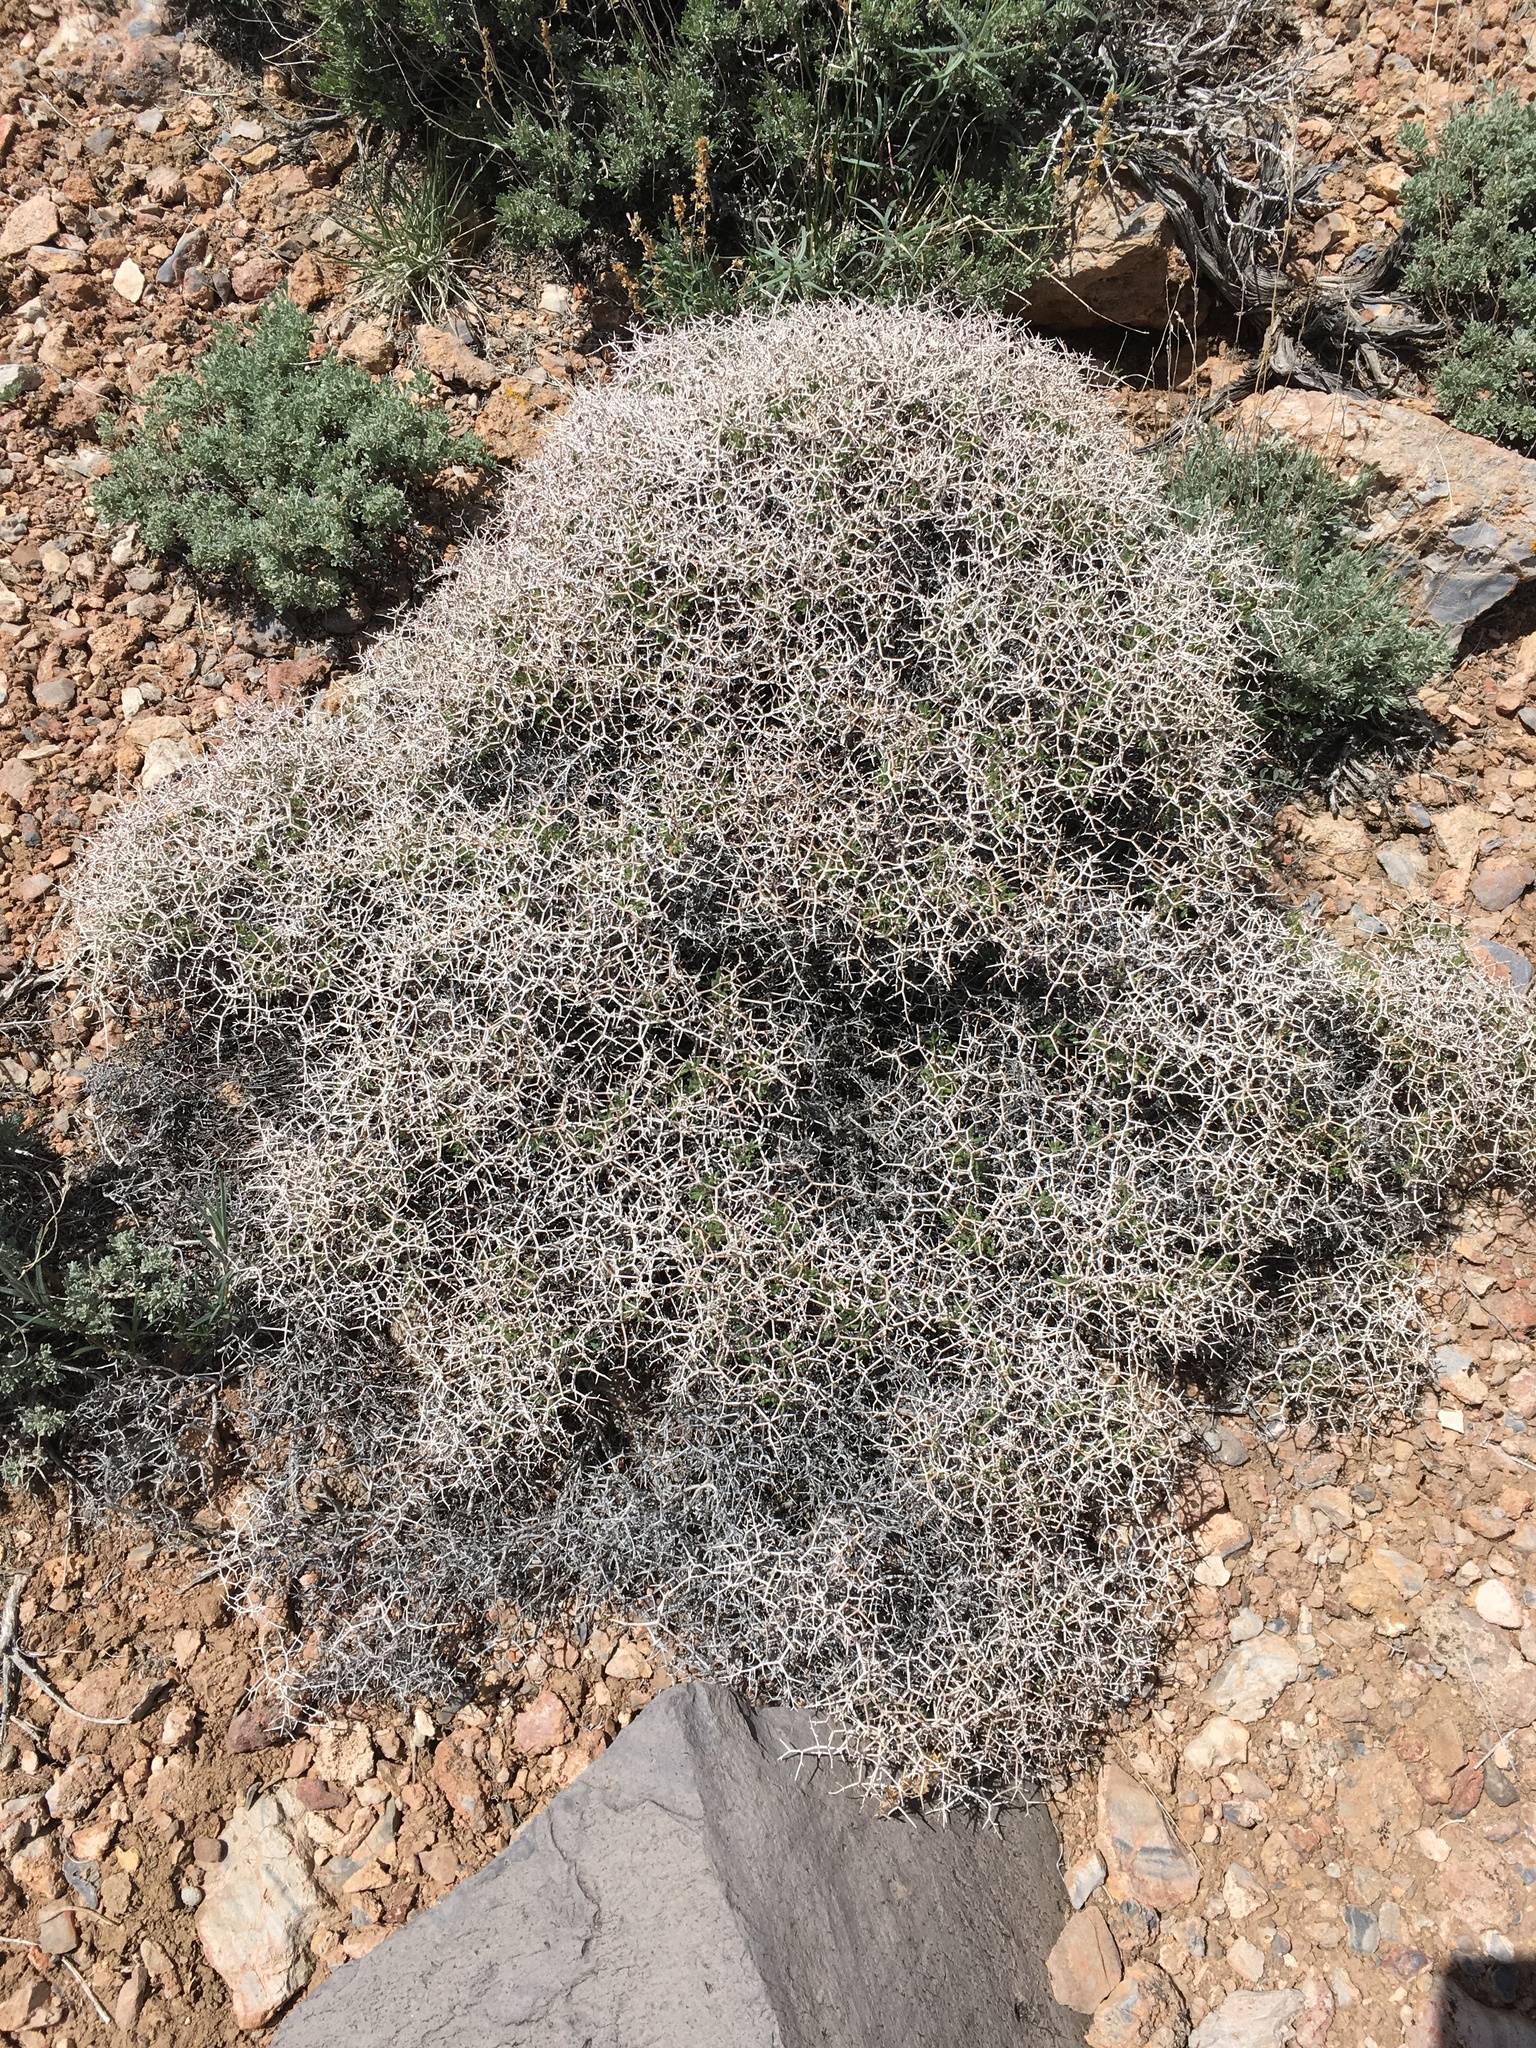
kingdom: Plantae
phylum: Tracheophyta
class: Magnoliopsida
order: Caryophyllales
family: Polygonaceae
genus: Eriogonum
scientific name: Eriogonum heermannii
